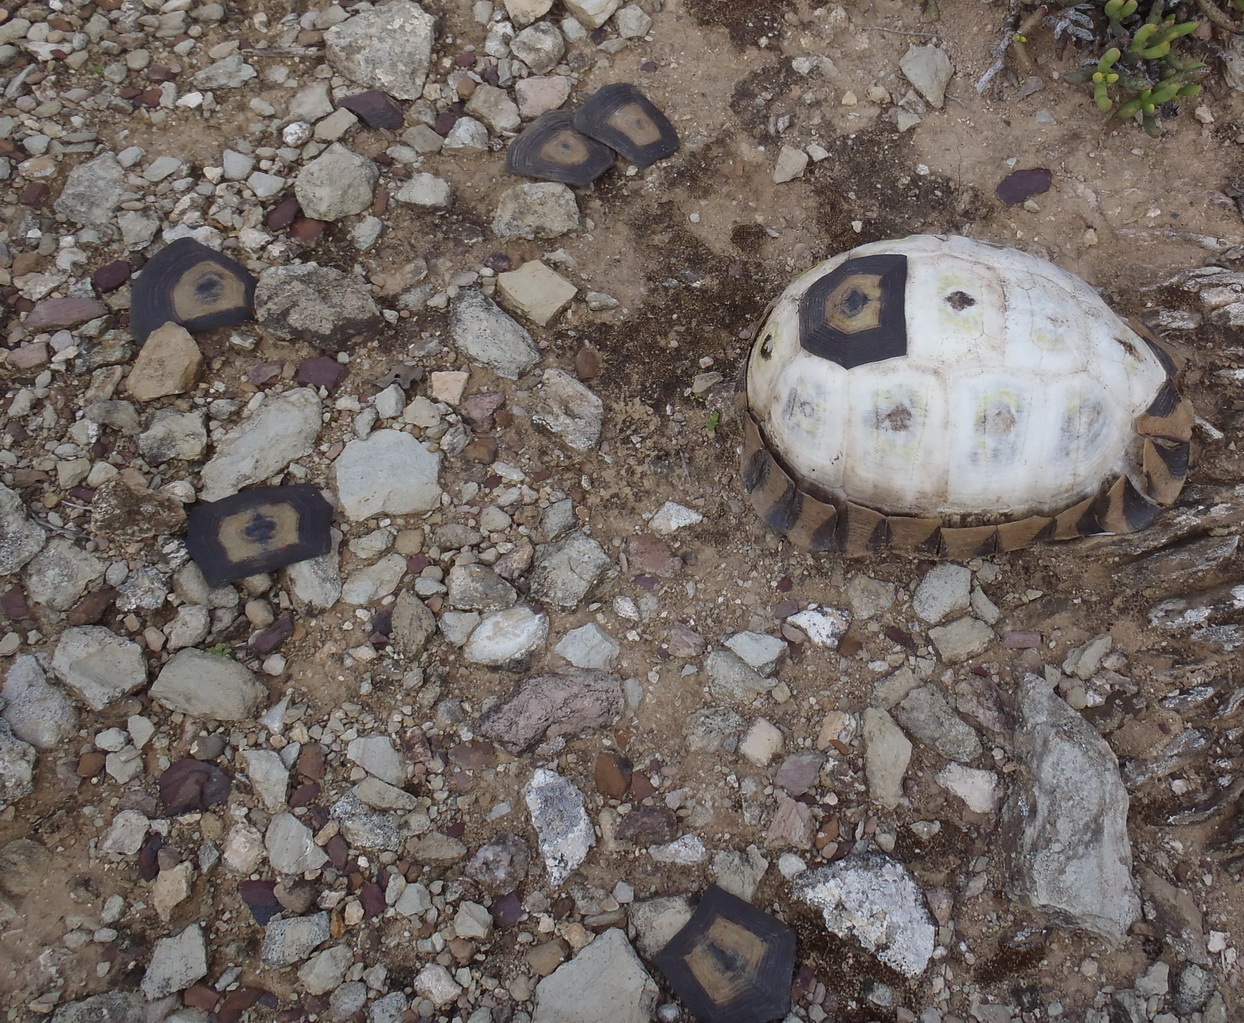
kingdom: Animalia
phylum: Chordata
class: Testudines
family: Testudinidae
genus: Chersina
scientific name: Chersina angulata
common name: South african bowsprit tortoise
